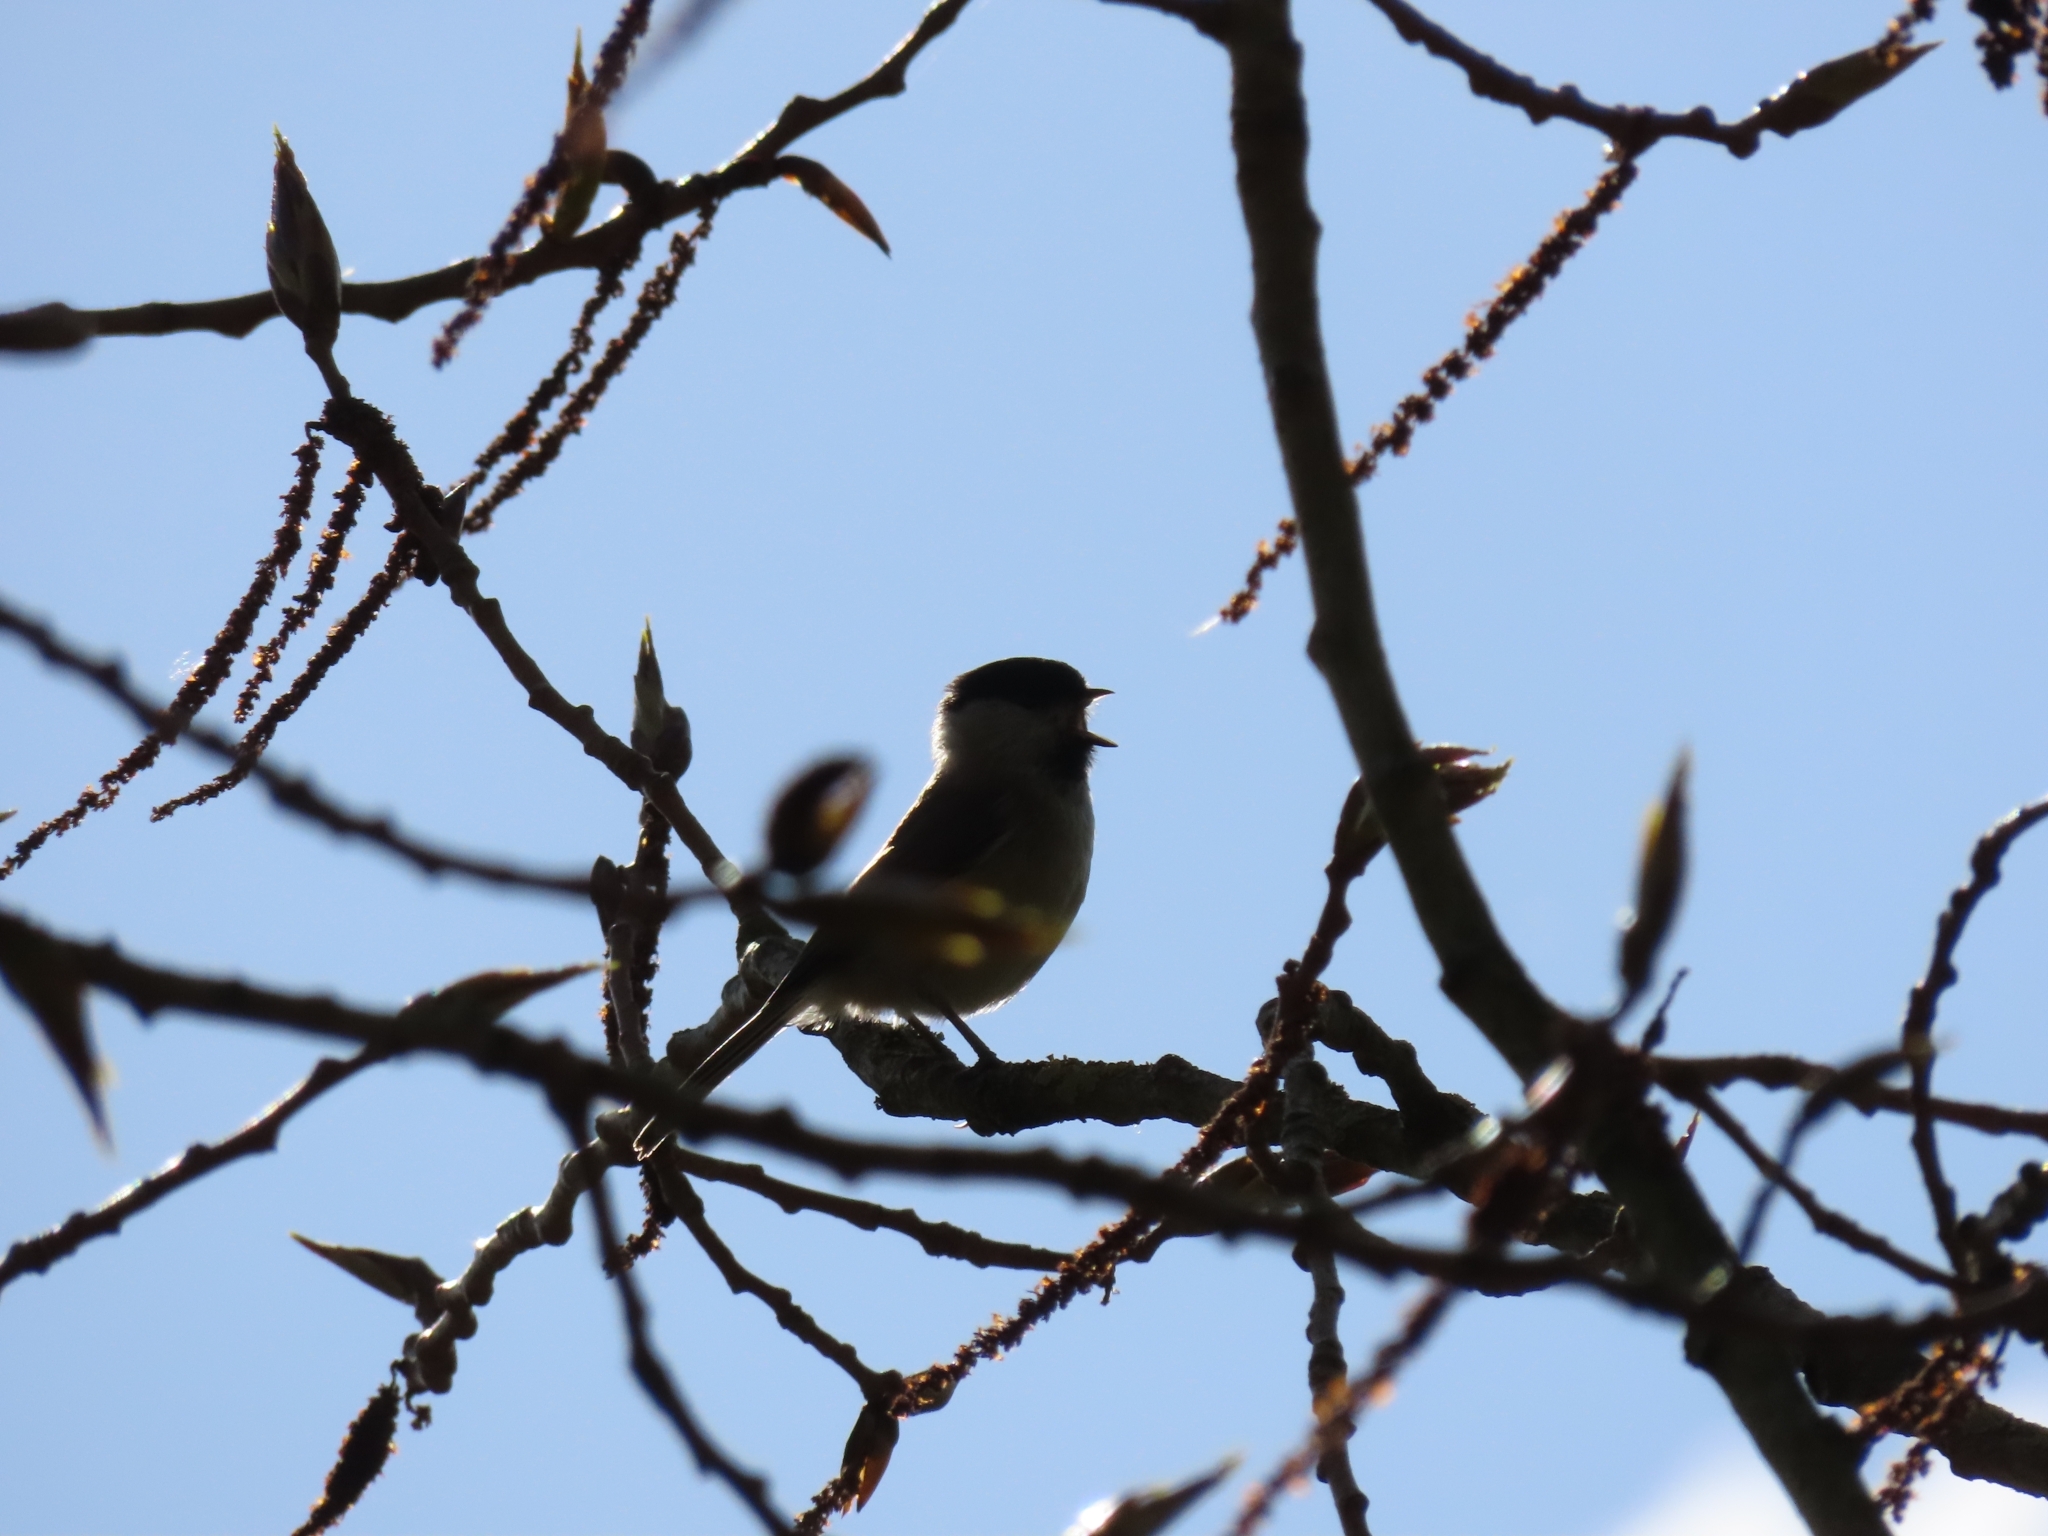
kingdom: Animalia
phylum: Chordata
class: Aves
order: Passeriformes
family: Paridae
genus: Poecile
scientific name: Poecile palustris
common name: Marsh tit
